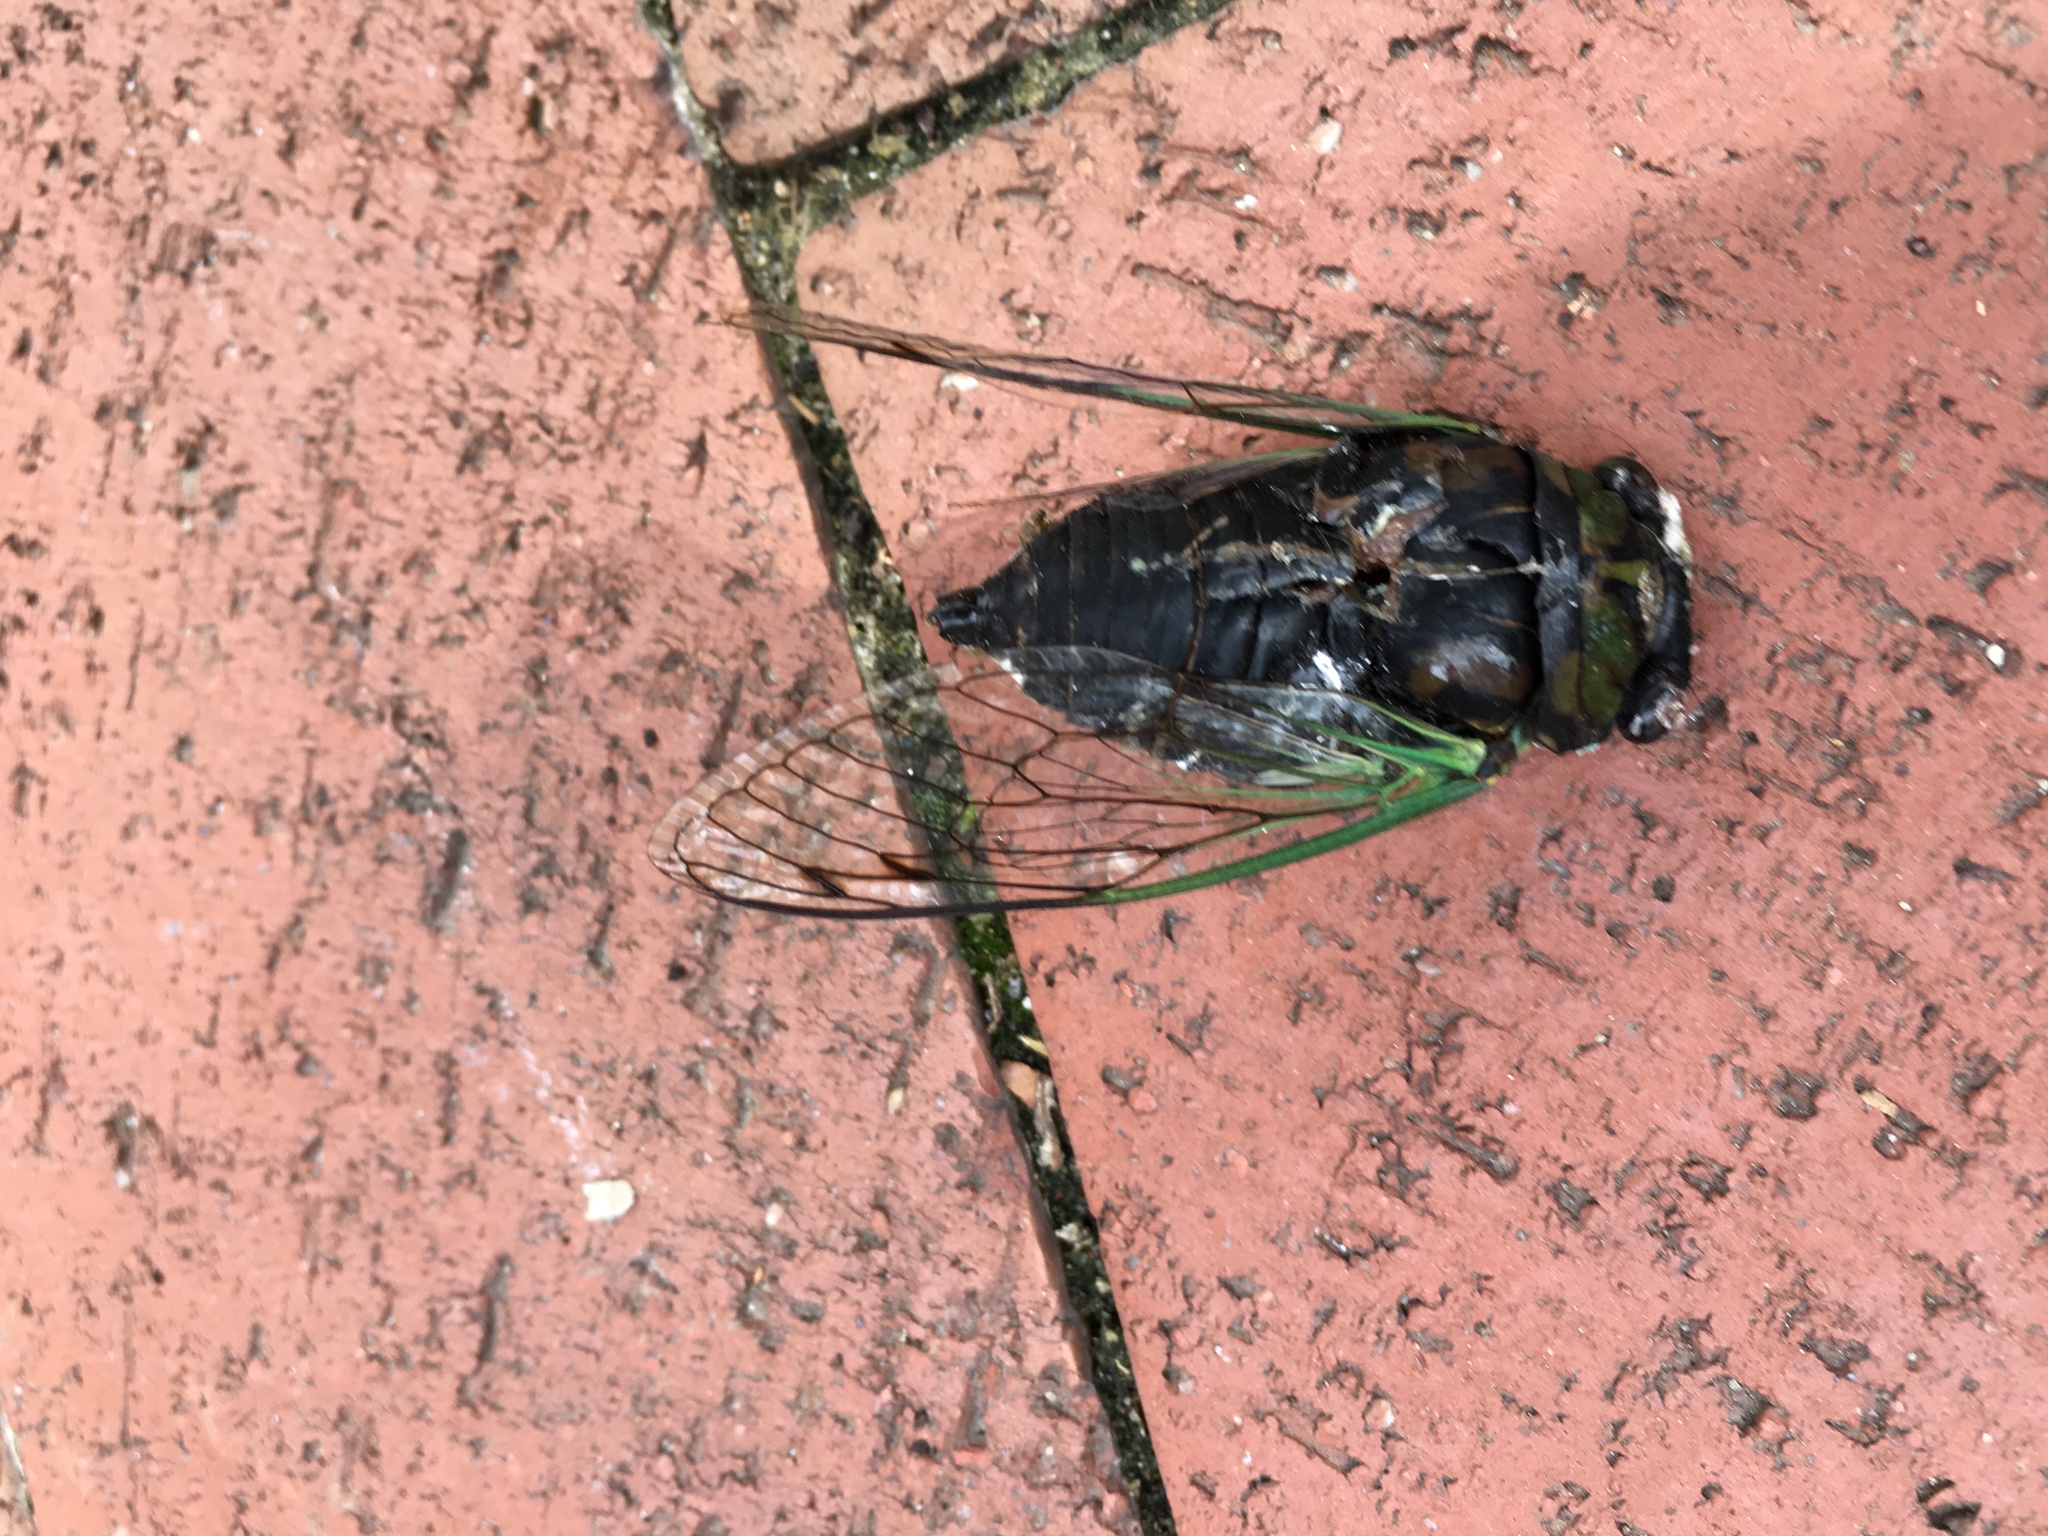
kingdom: Animalia
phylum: Arthropoda
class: Insecta
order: Hemiptera
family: Cicadidae
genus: Neotibicen
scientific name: Neotibicen tibicen
